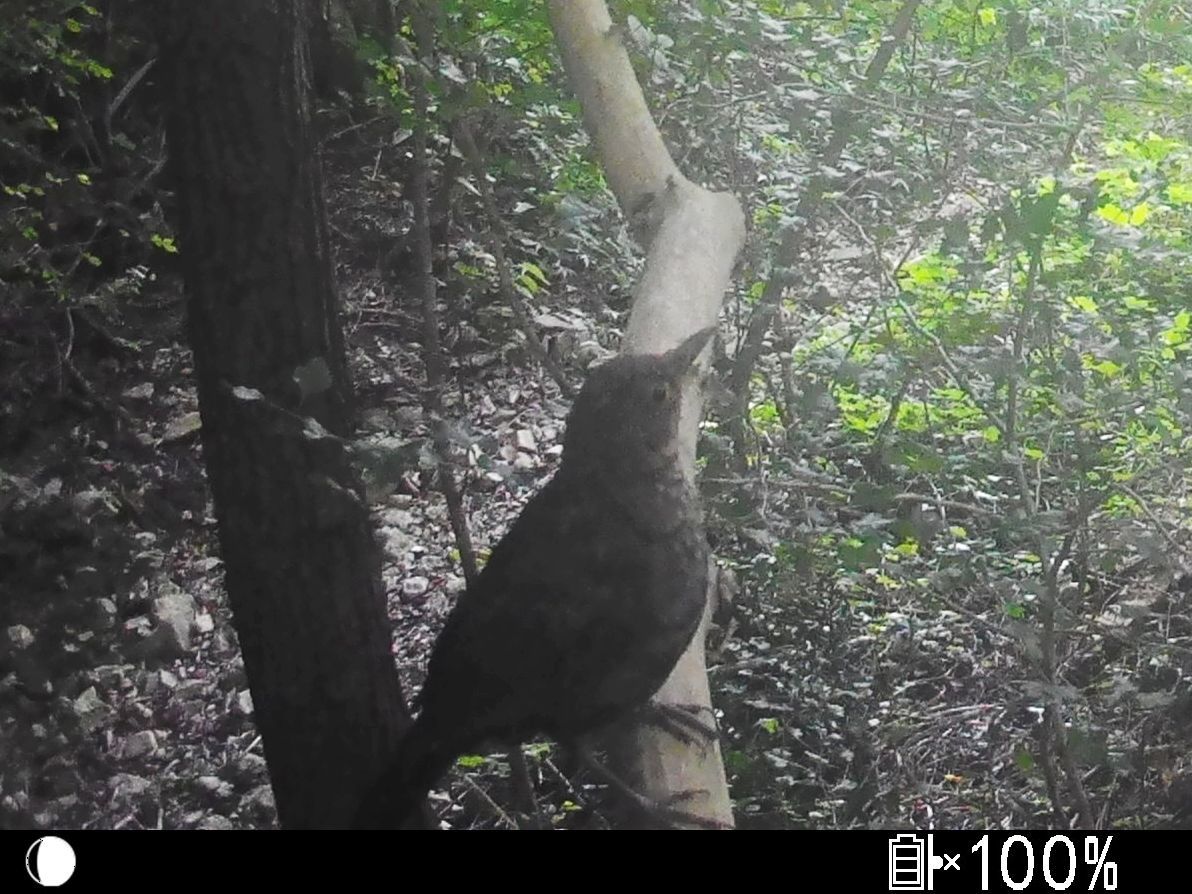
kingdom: Animalia
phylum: Chordata
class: Aves
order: Passeriformes
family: Turdidae
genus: Turdus
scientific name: Turdus merula
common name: Common blackbird
